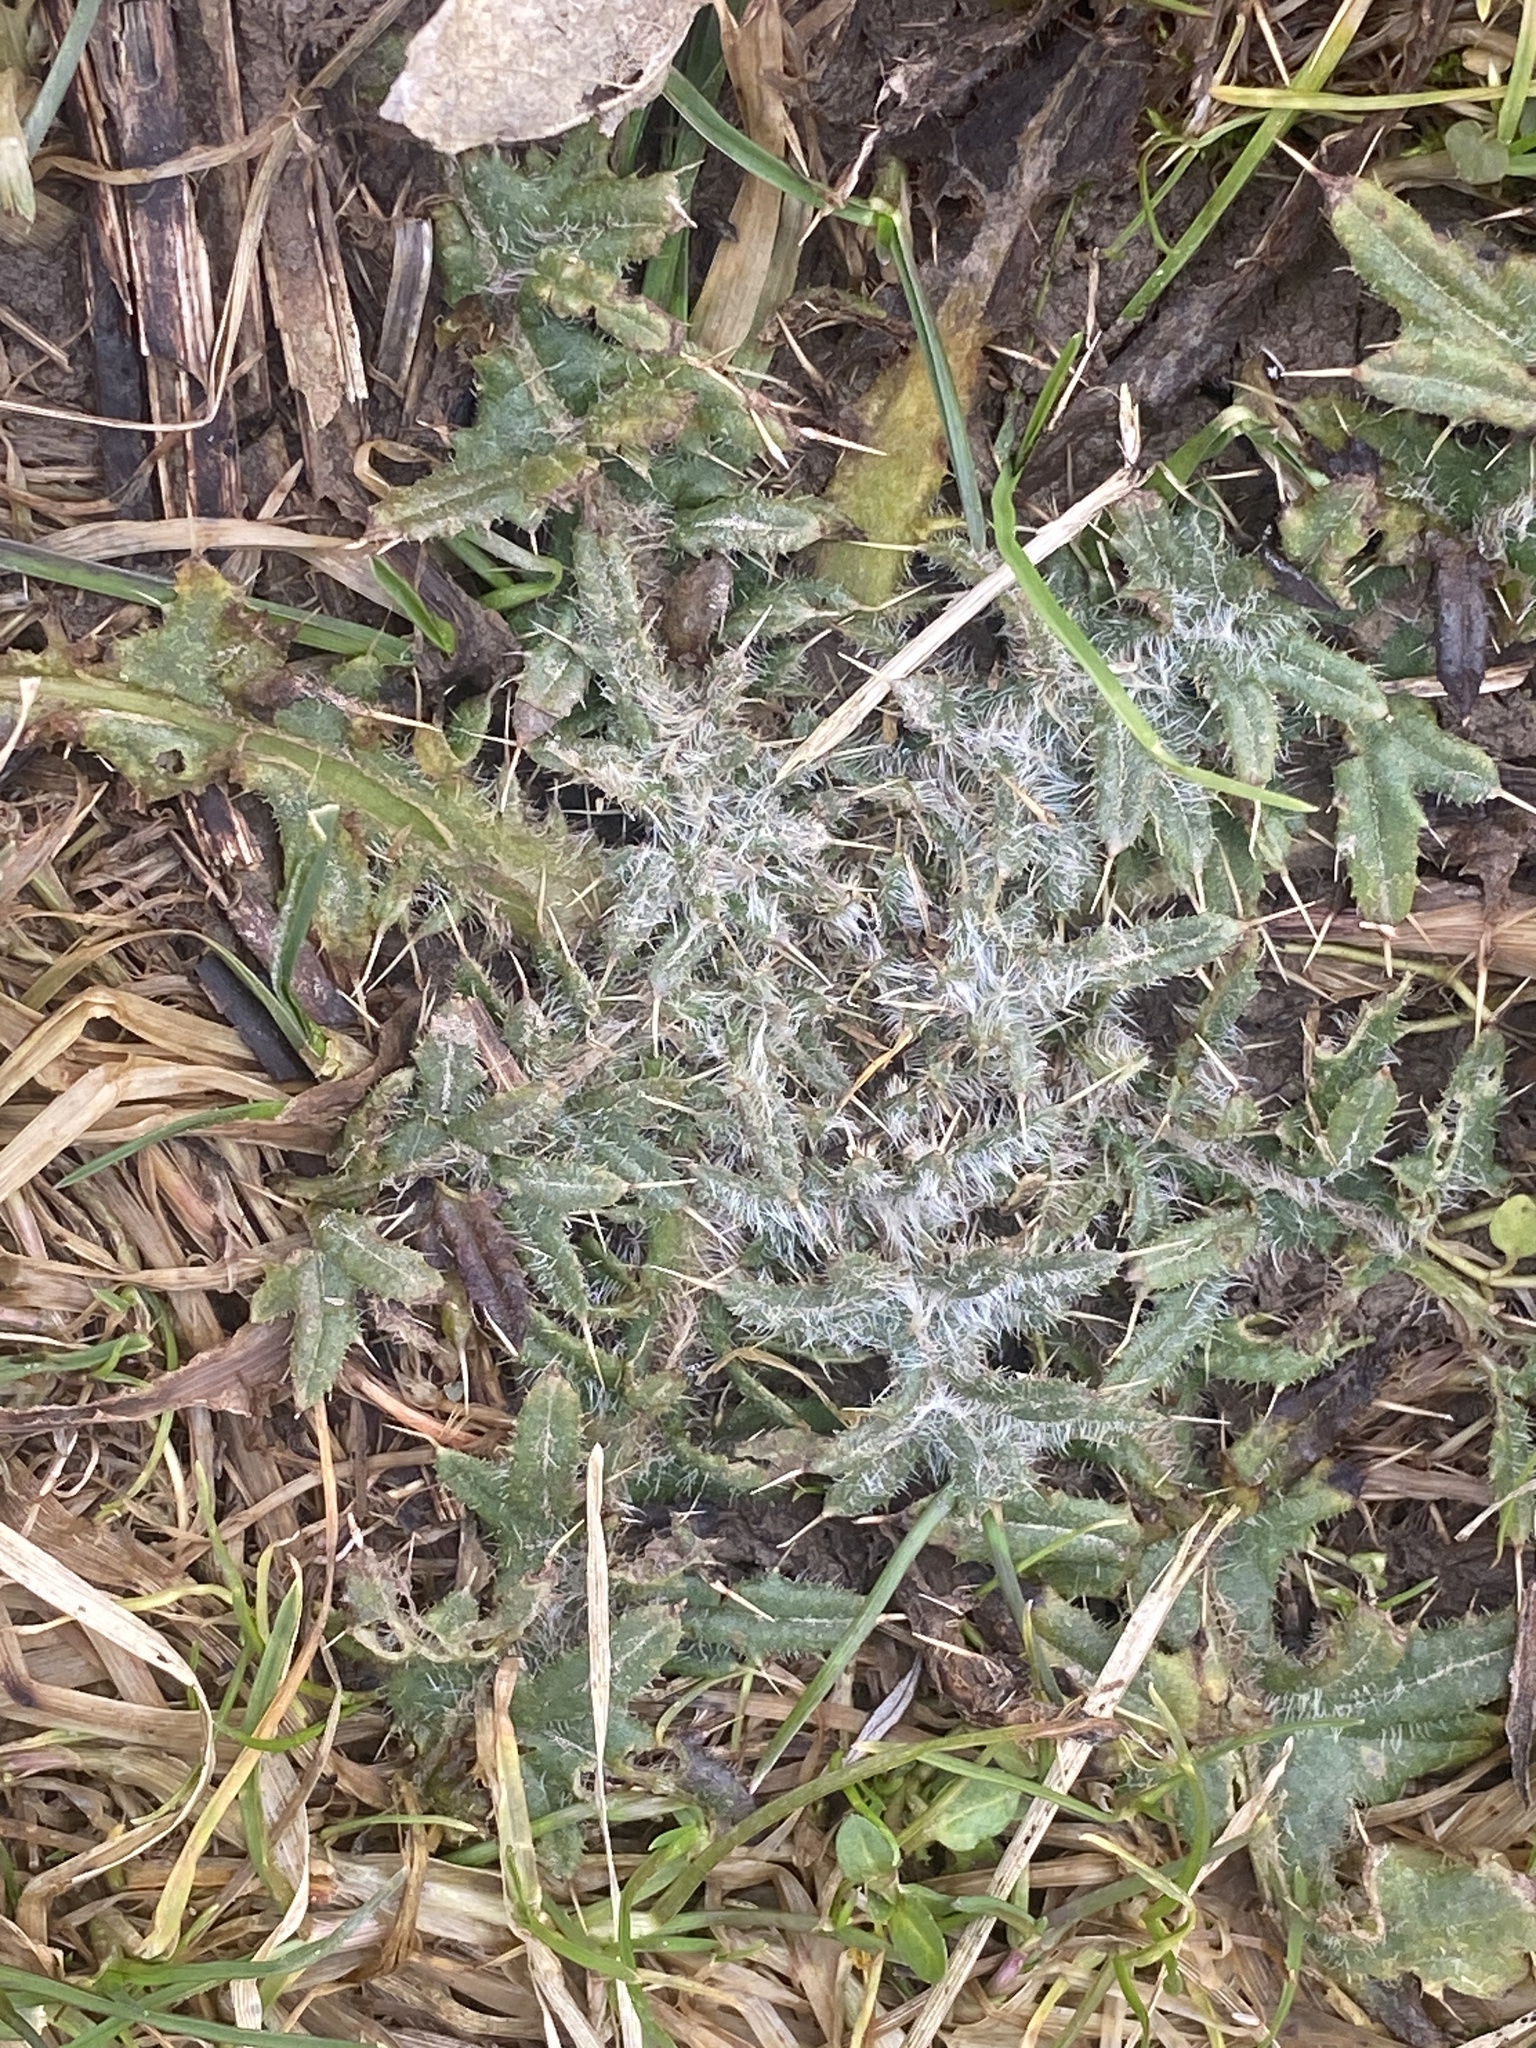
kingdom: Plantae
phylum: Tracheophyta
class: Magnoliopsida
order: Asterales
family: Asteraceae
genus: Cirsium
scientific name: Cirsium vulgare
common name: Bull thistle
